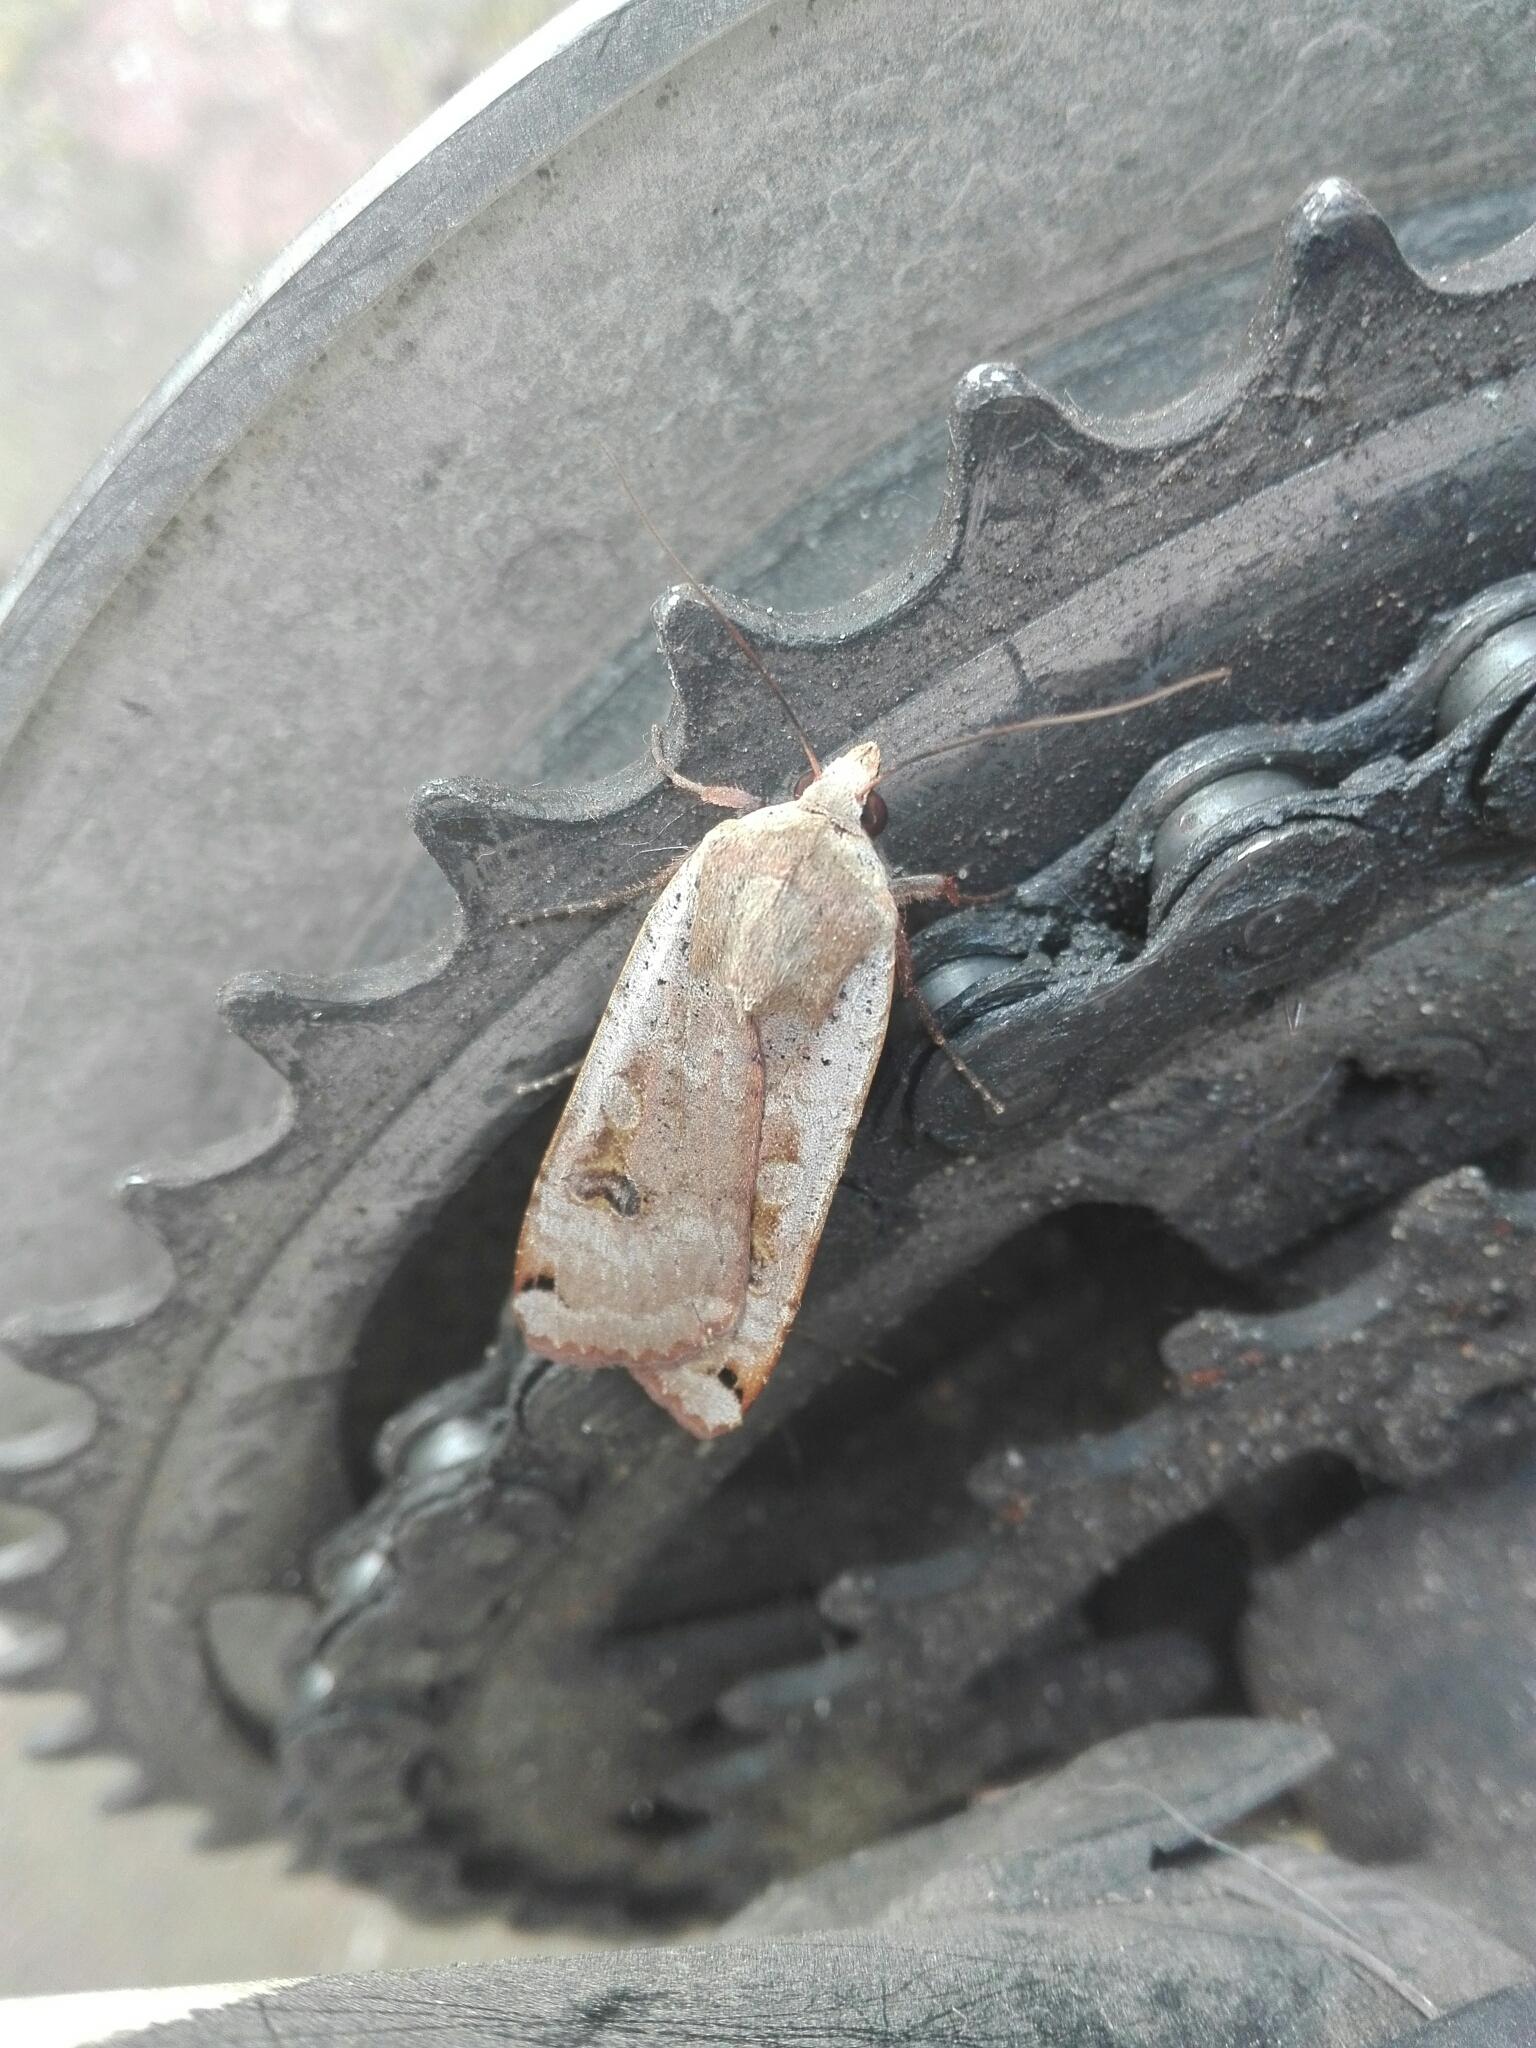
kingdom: Animalia
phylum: Arthropoda
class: Insecta
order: Lepidoptera
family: Noctuidae
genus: Noctua
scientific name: Noctua pronuba
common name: Large yellow underwing
